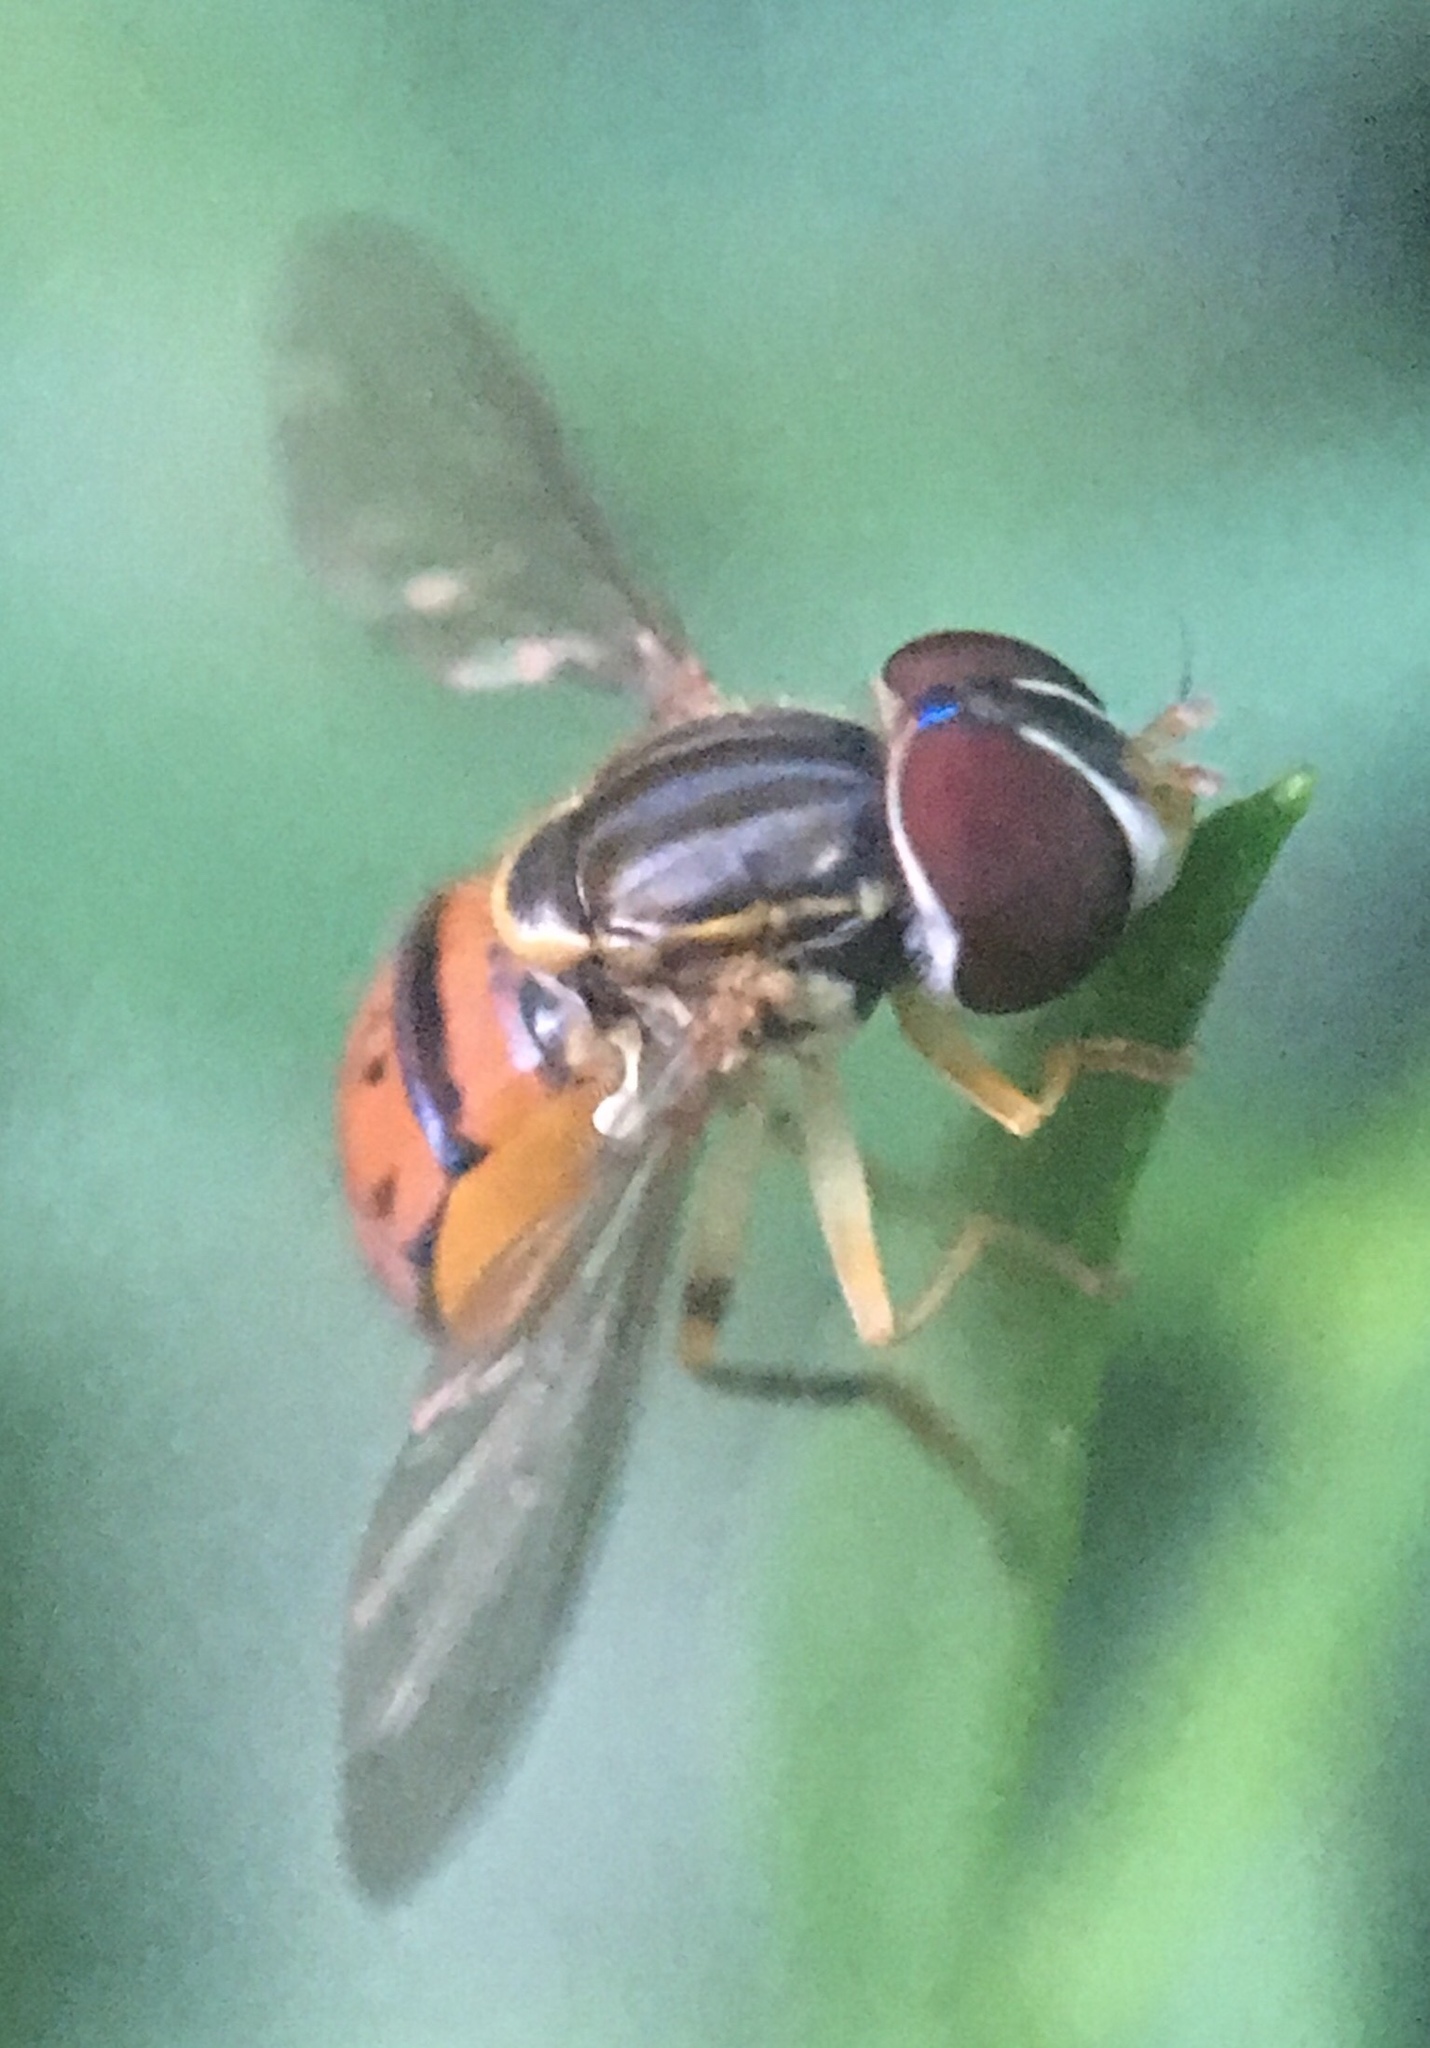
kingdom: Animalia
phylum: Arthropoda
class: Insecta
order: Diptera
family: Syrphidae
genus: Toxomerus
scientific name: Toxomerus boscii
